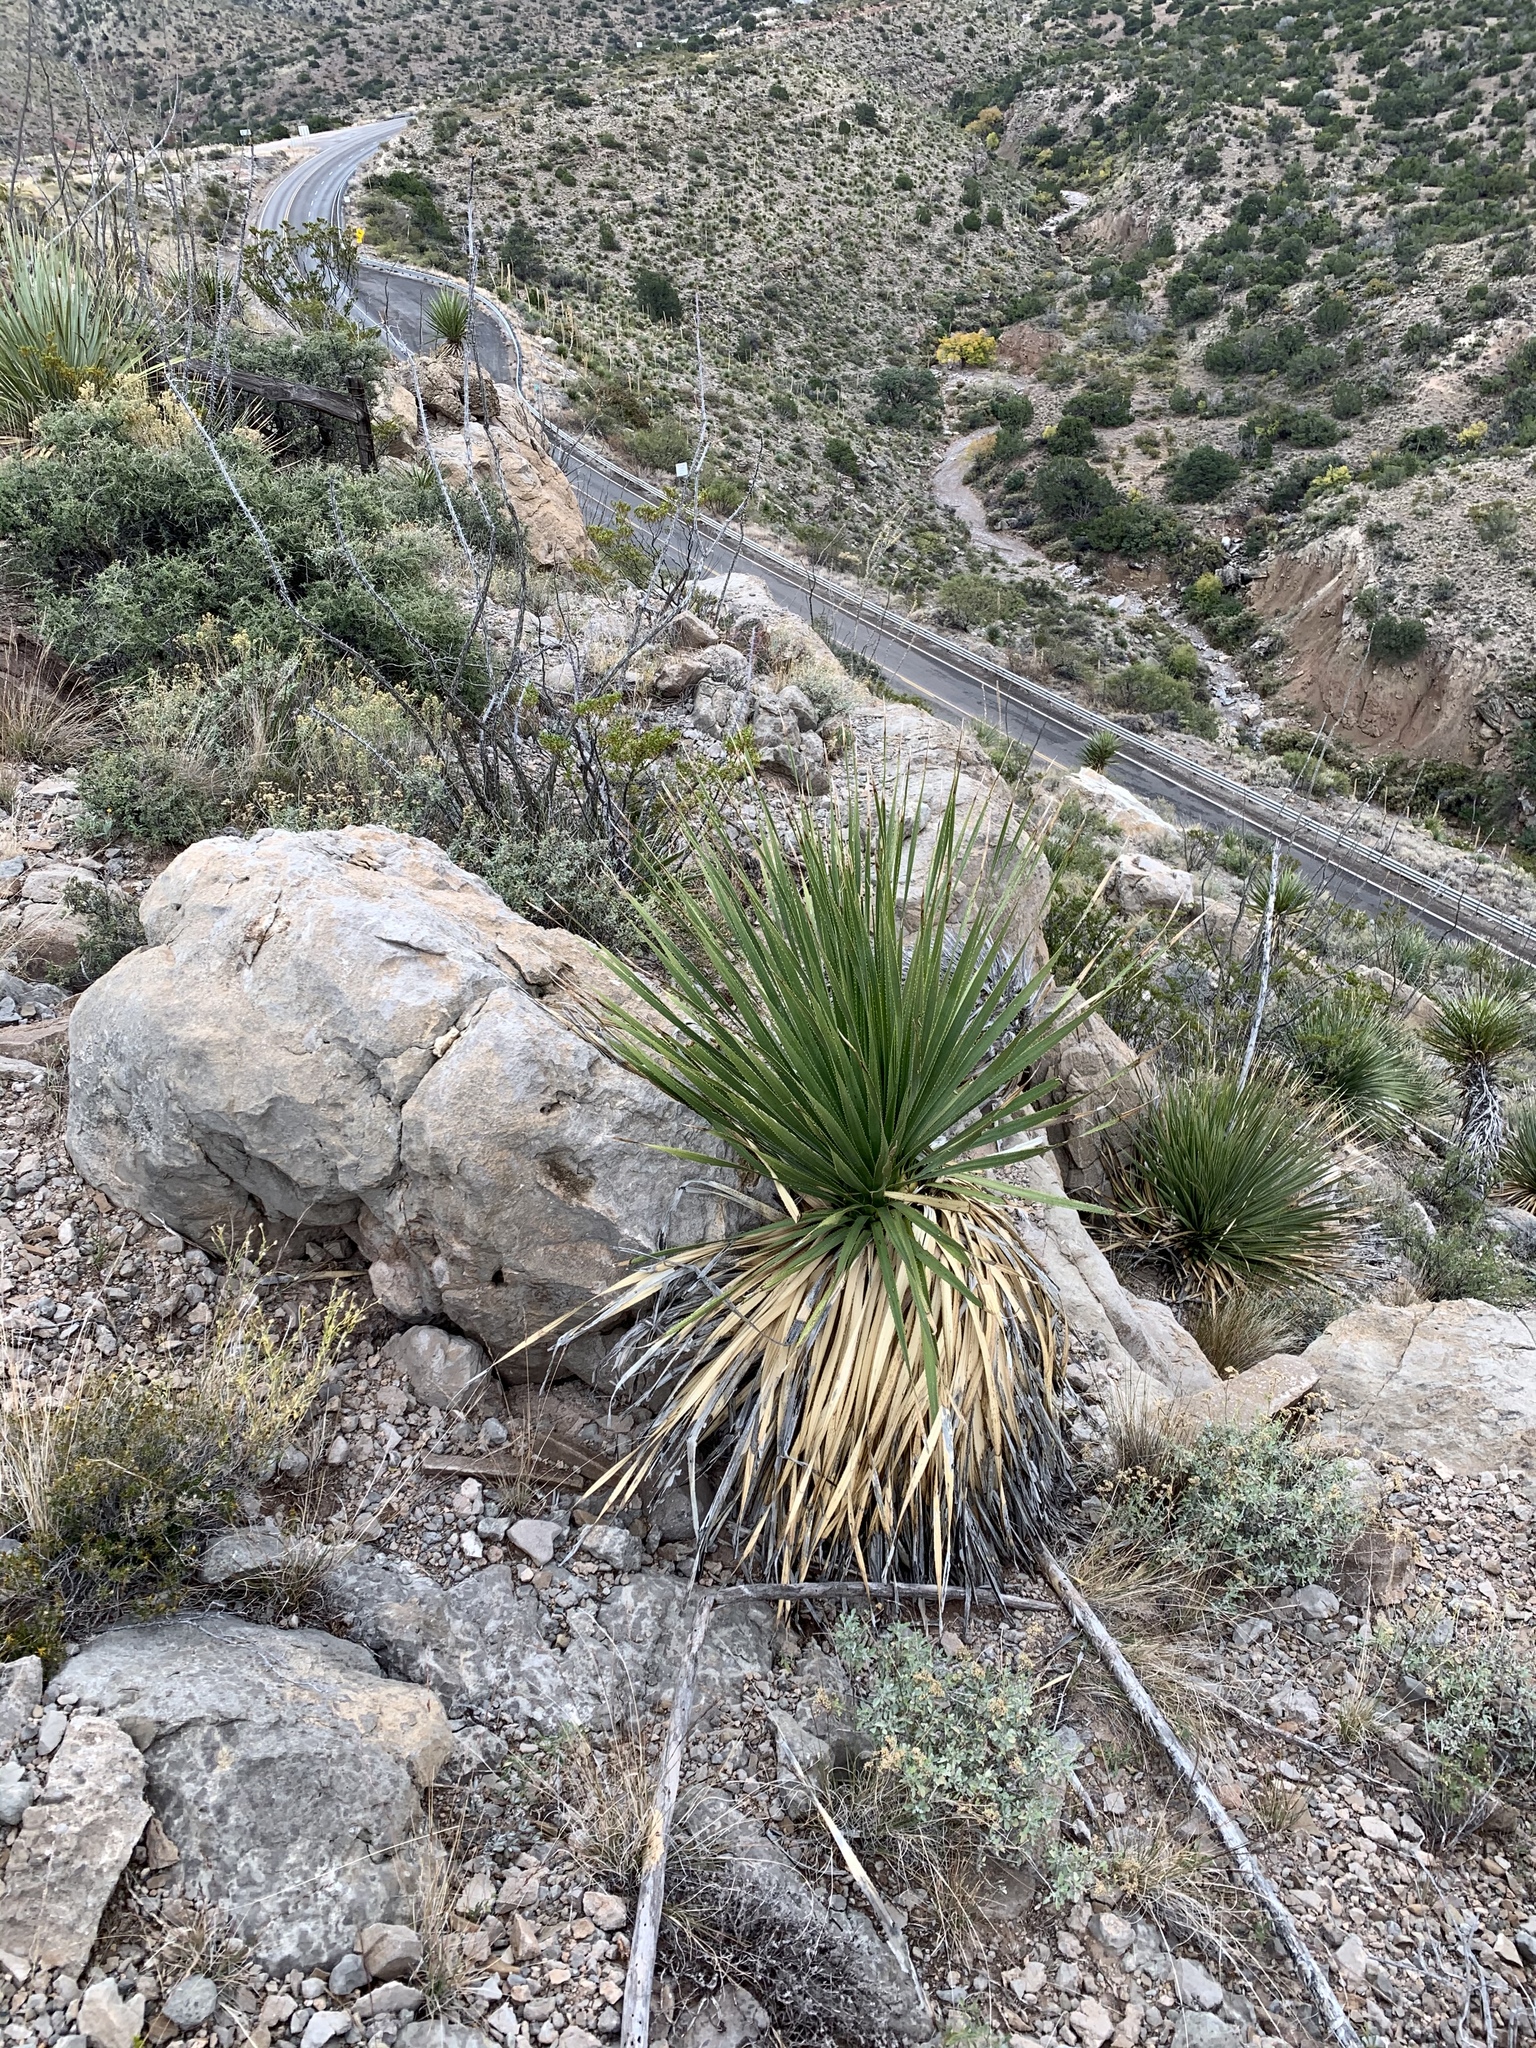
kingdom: Plantae
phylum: Tracheophyta
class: Liliopsida
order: Asparagales
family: Asparagaceae
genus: Dasylirion
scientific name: Dasylirion wheeleri
